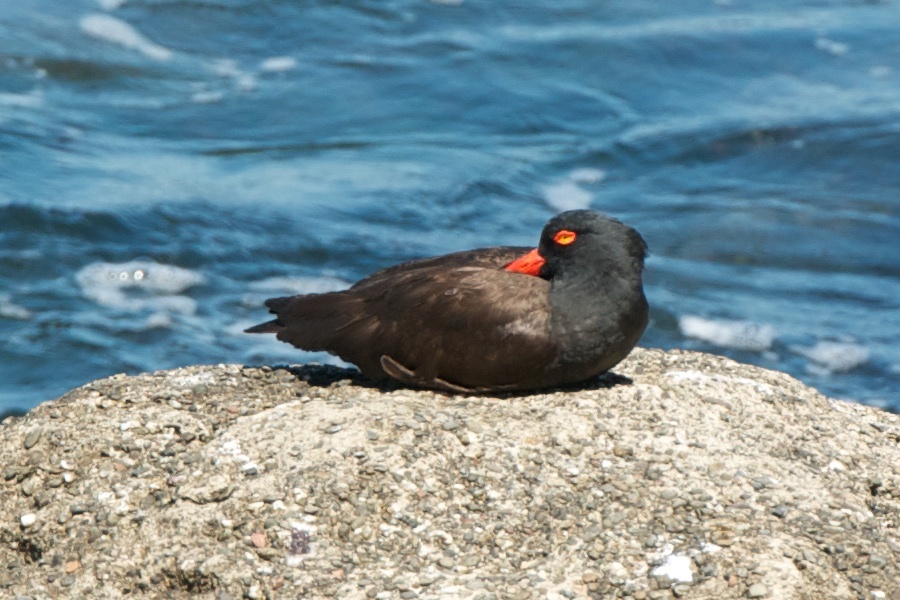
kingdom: Animalia
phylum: Chordata
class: Aves
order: Charadriiformes
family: Haematopodidae
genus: Haematopus
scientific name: Haematopus bachmani
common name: Black oystercatcher
